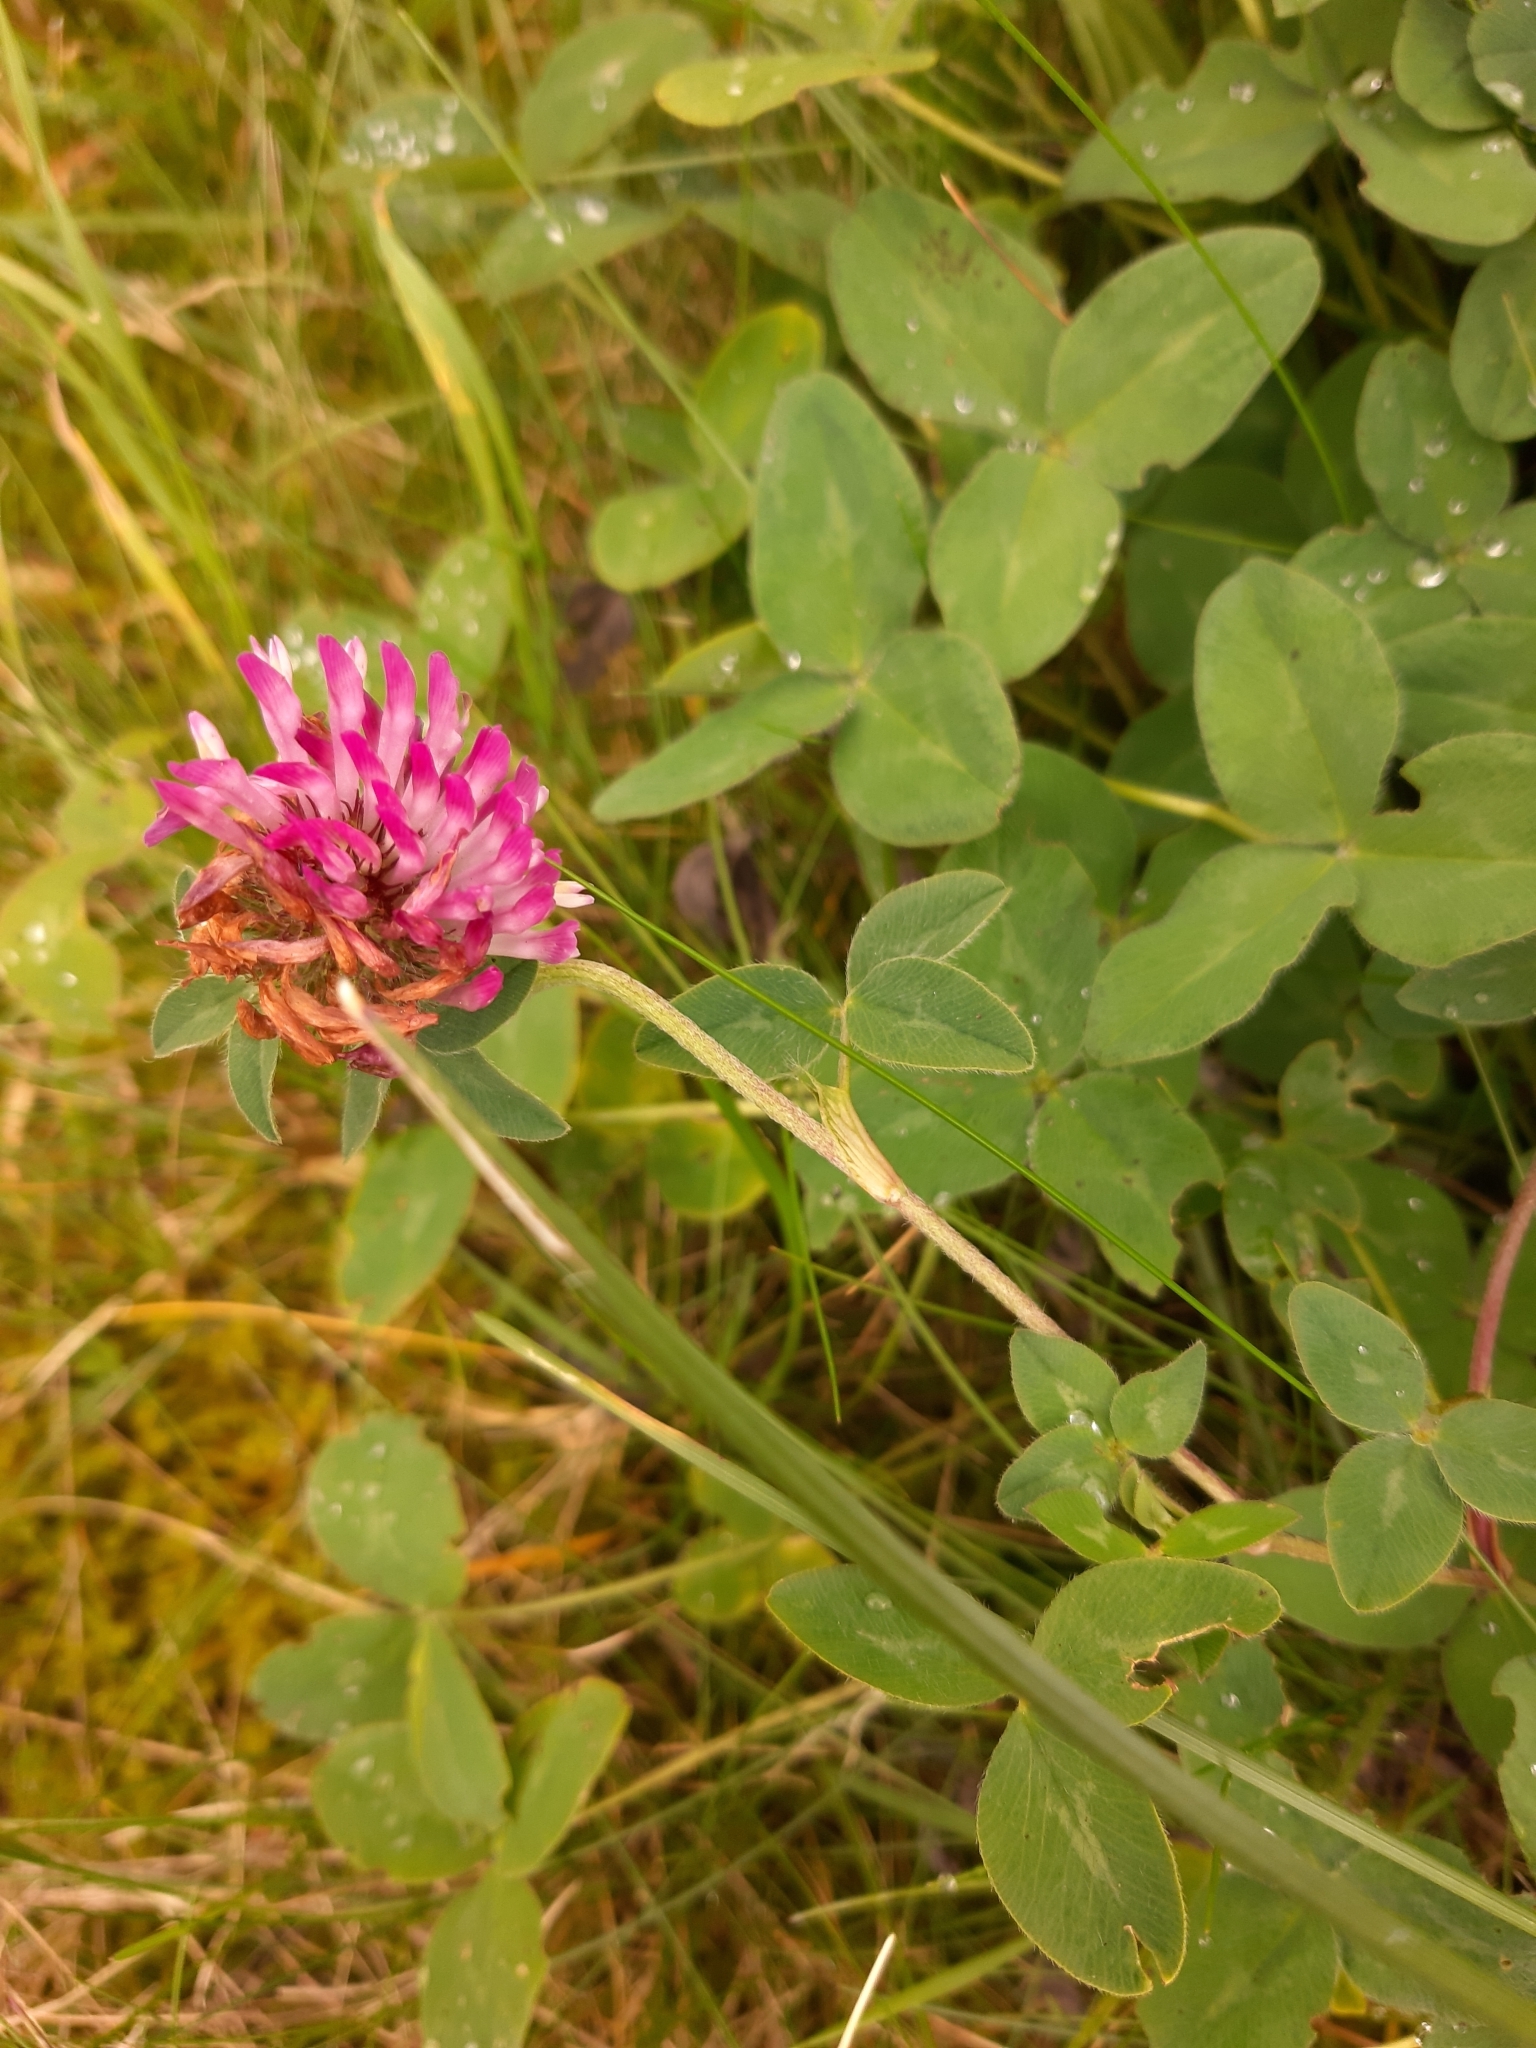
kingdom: Plantae
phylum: Tracheophyta
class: Magnoliopsida
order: Fabales
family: Fabaceae
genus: Trifolium
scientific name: Trifolium pratense
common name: Red clover
